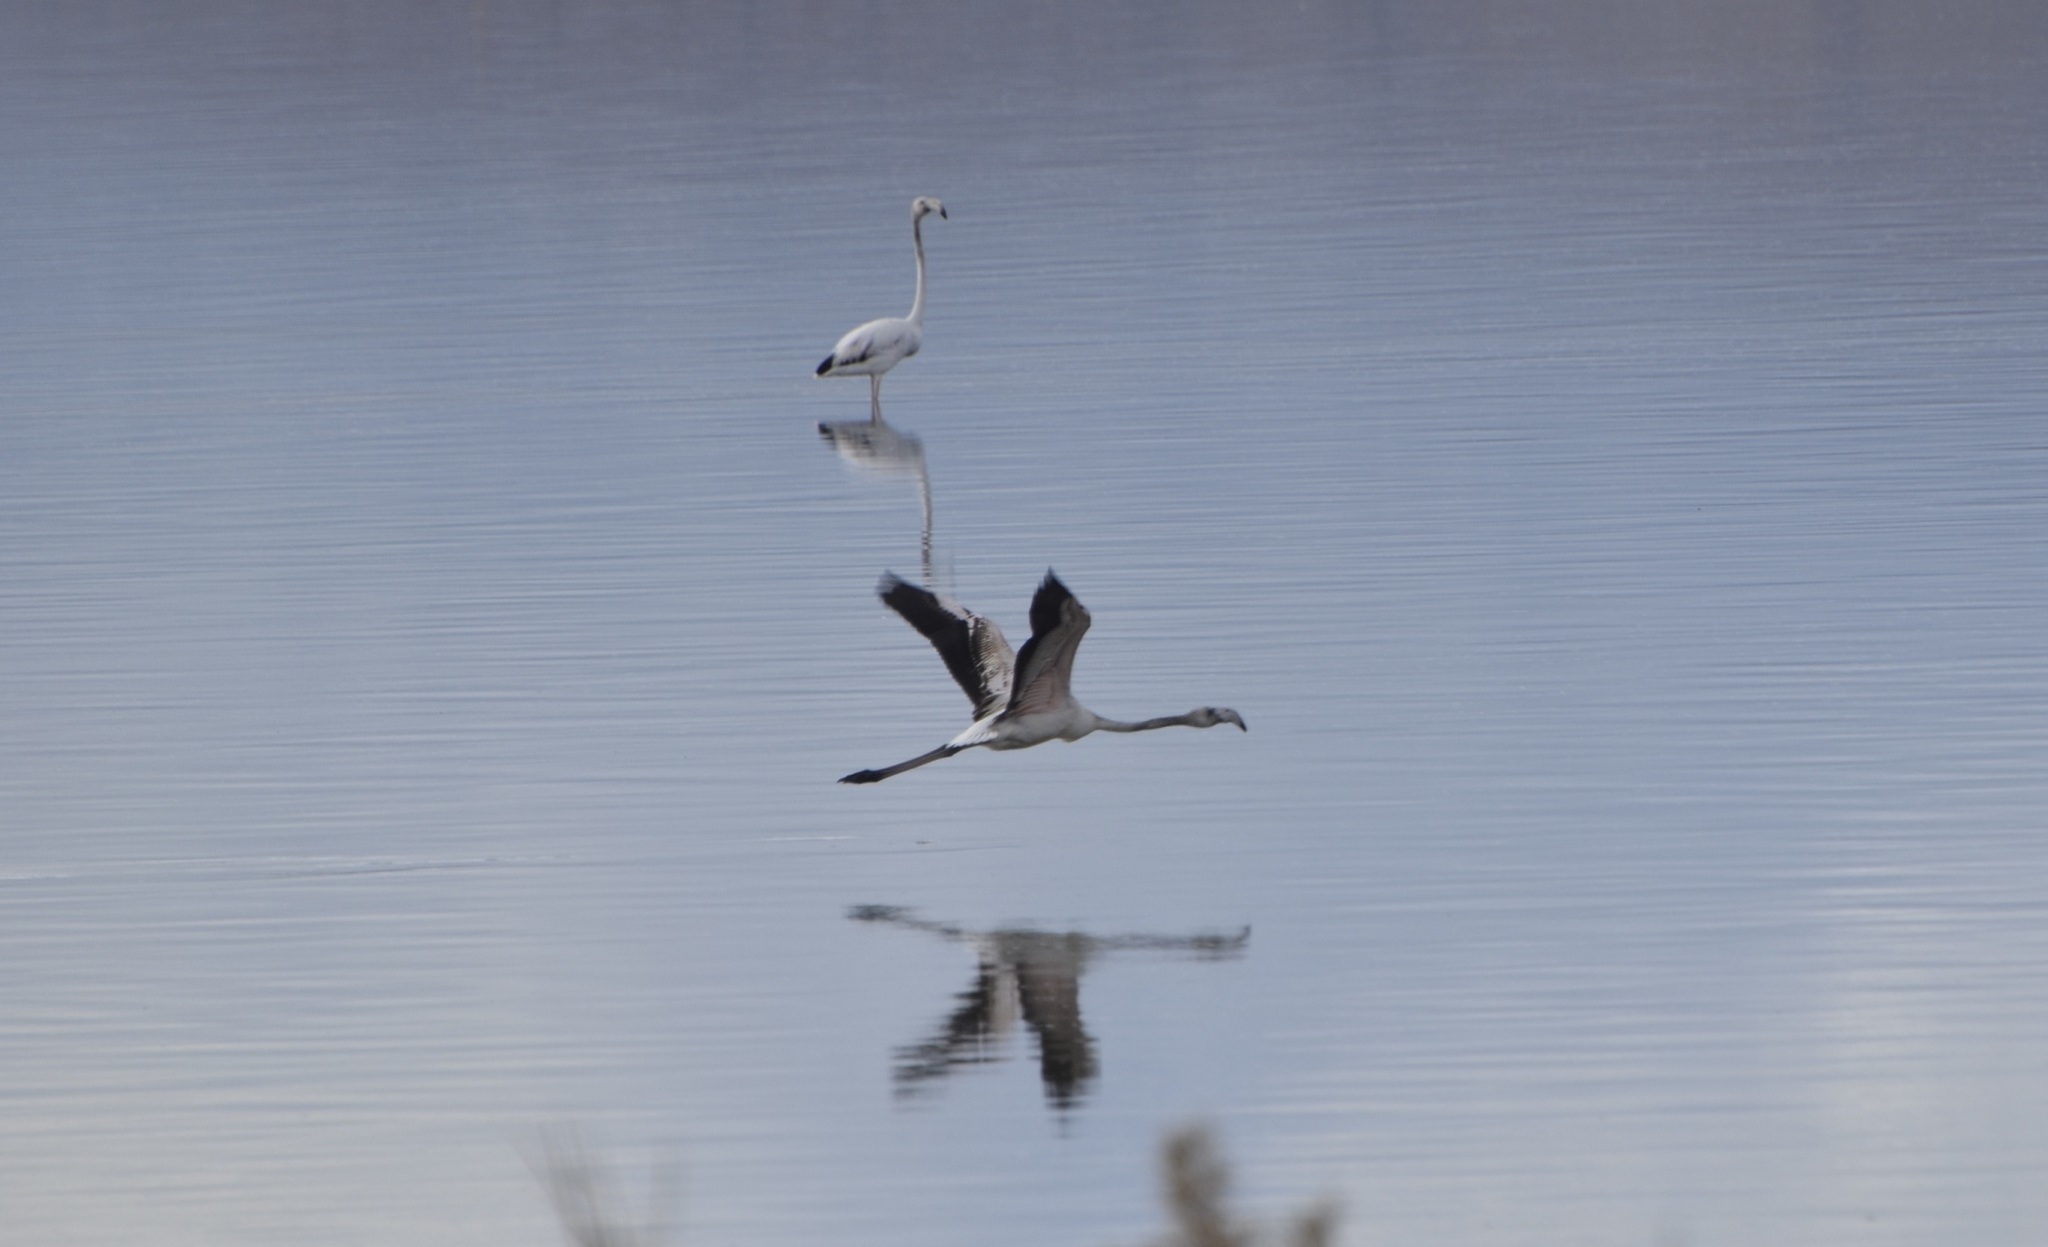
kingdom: Animalia
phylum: Chordata
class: Aves
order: Phoenicopteriformes
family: Phoenicopteridae
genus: Phoenicopterus
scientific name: Phoenicopterus roseus
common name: Greater flamingo
